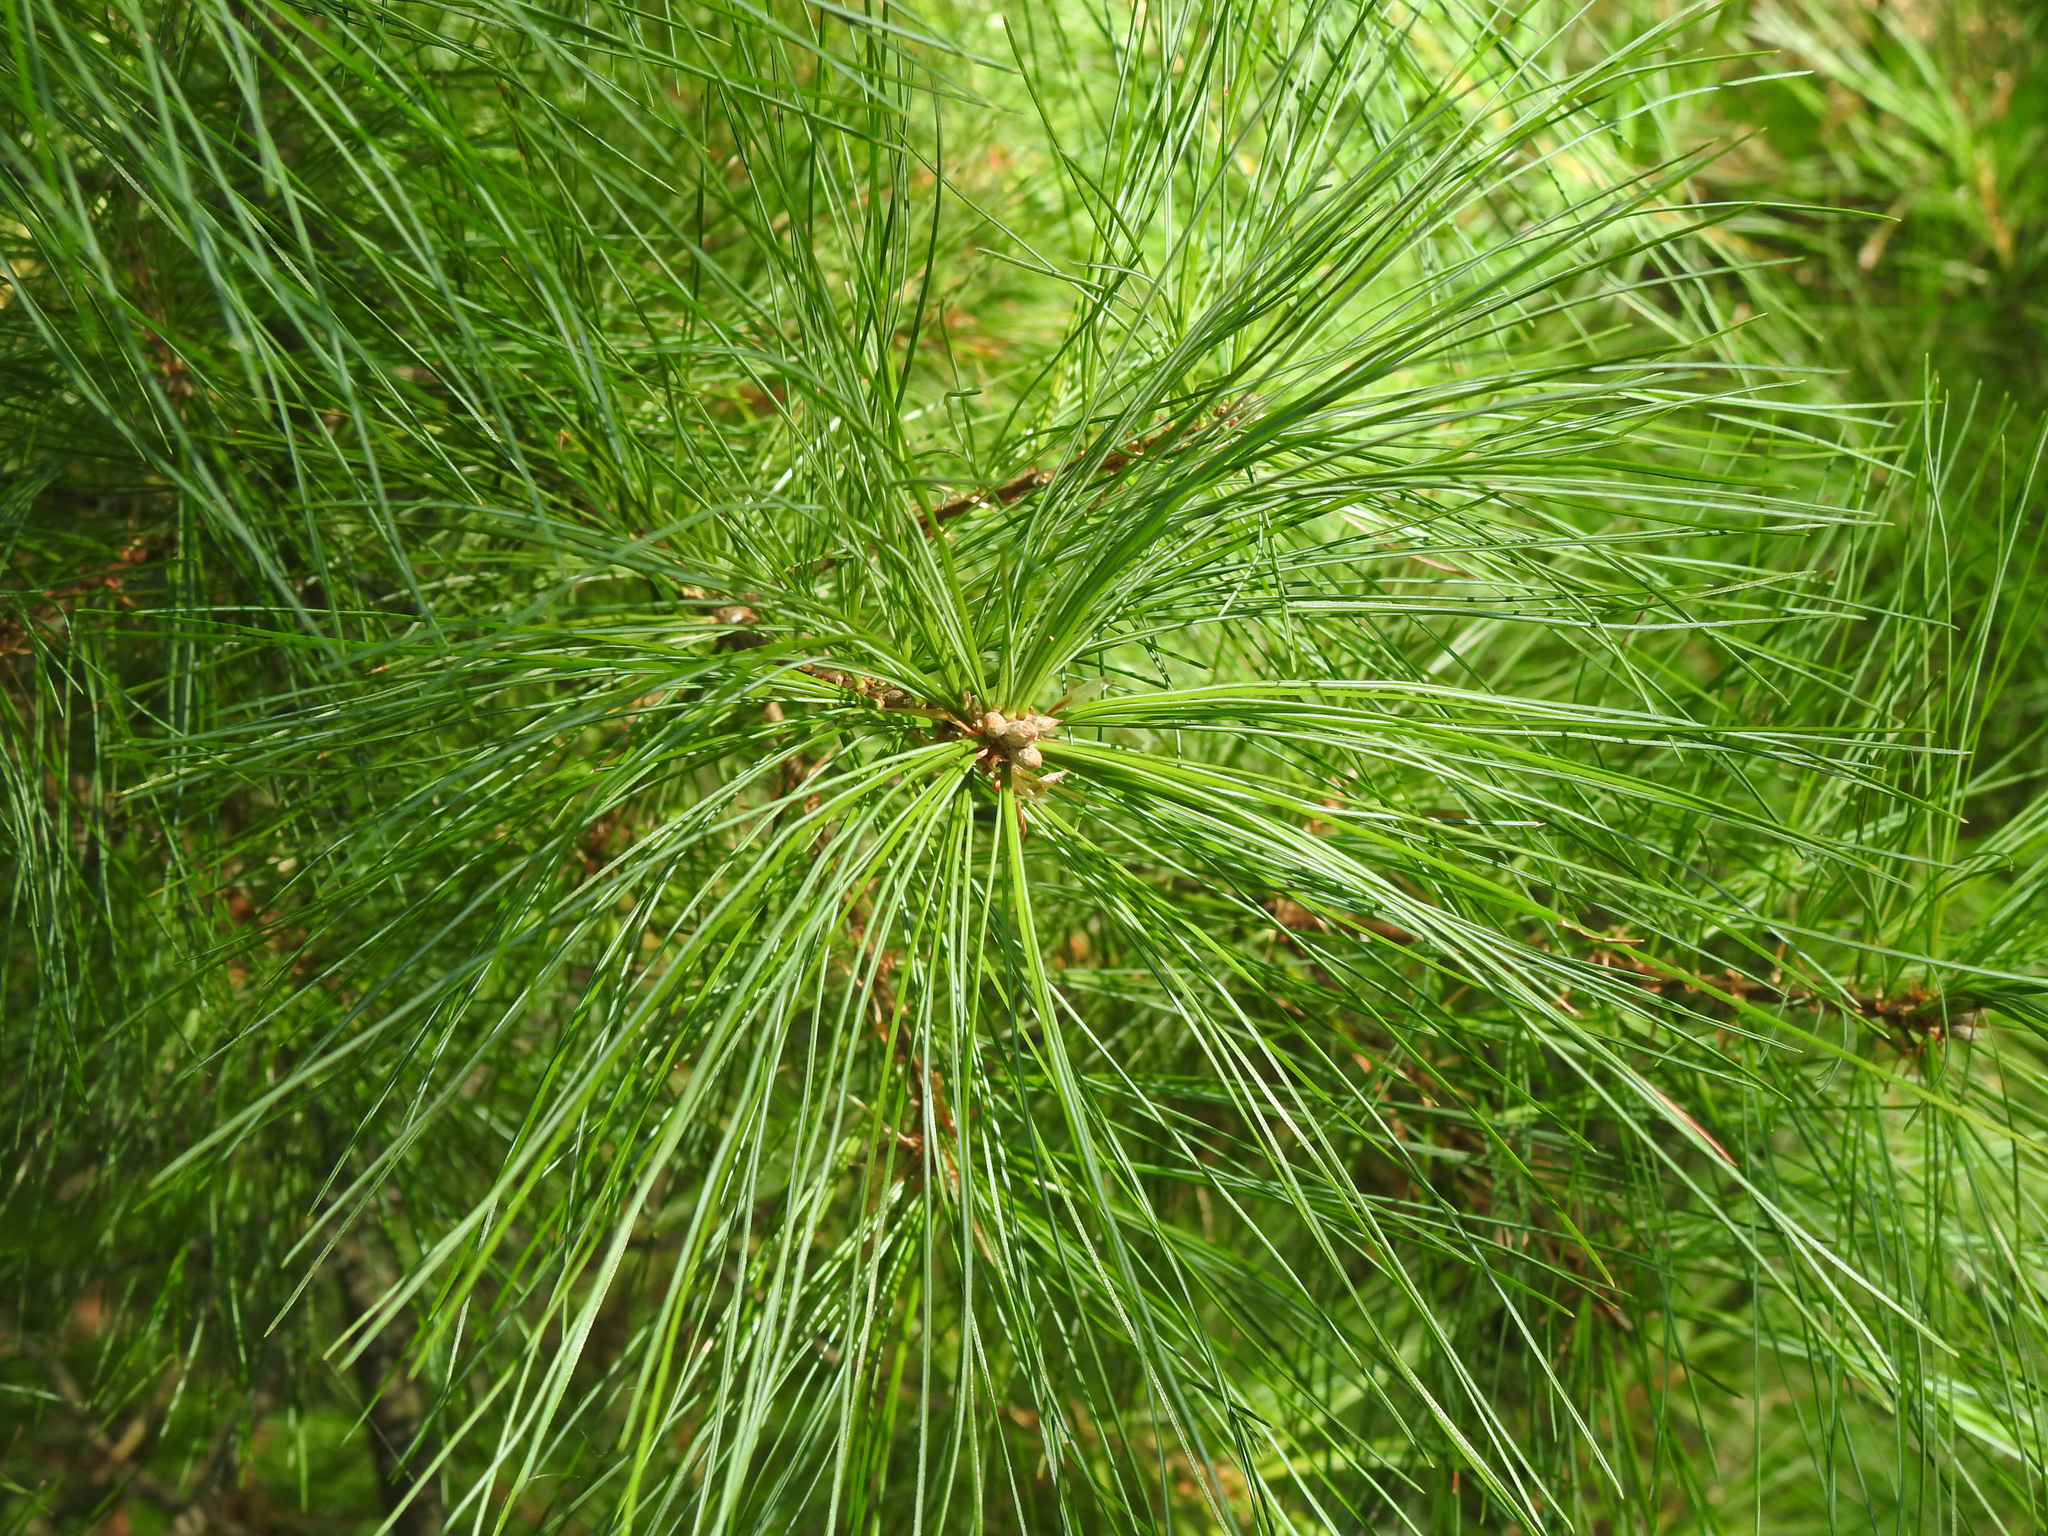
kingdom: Plantae
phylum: Tracheophyta
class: Pinopsida
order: Pinales
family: Pinaceae
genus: Pinus
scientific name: Pinus strobus
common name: Weymouth pine
